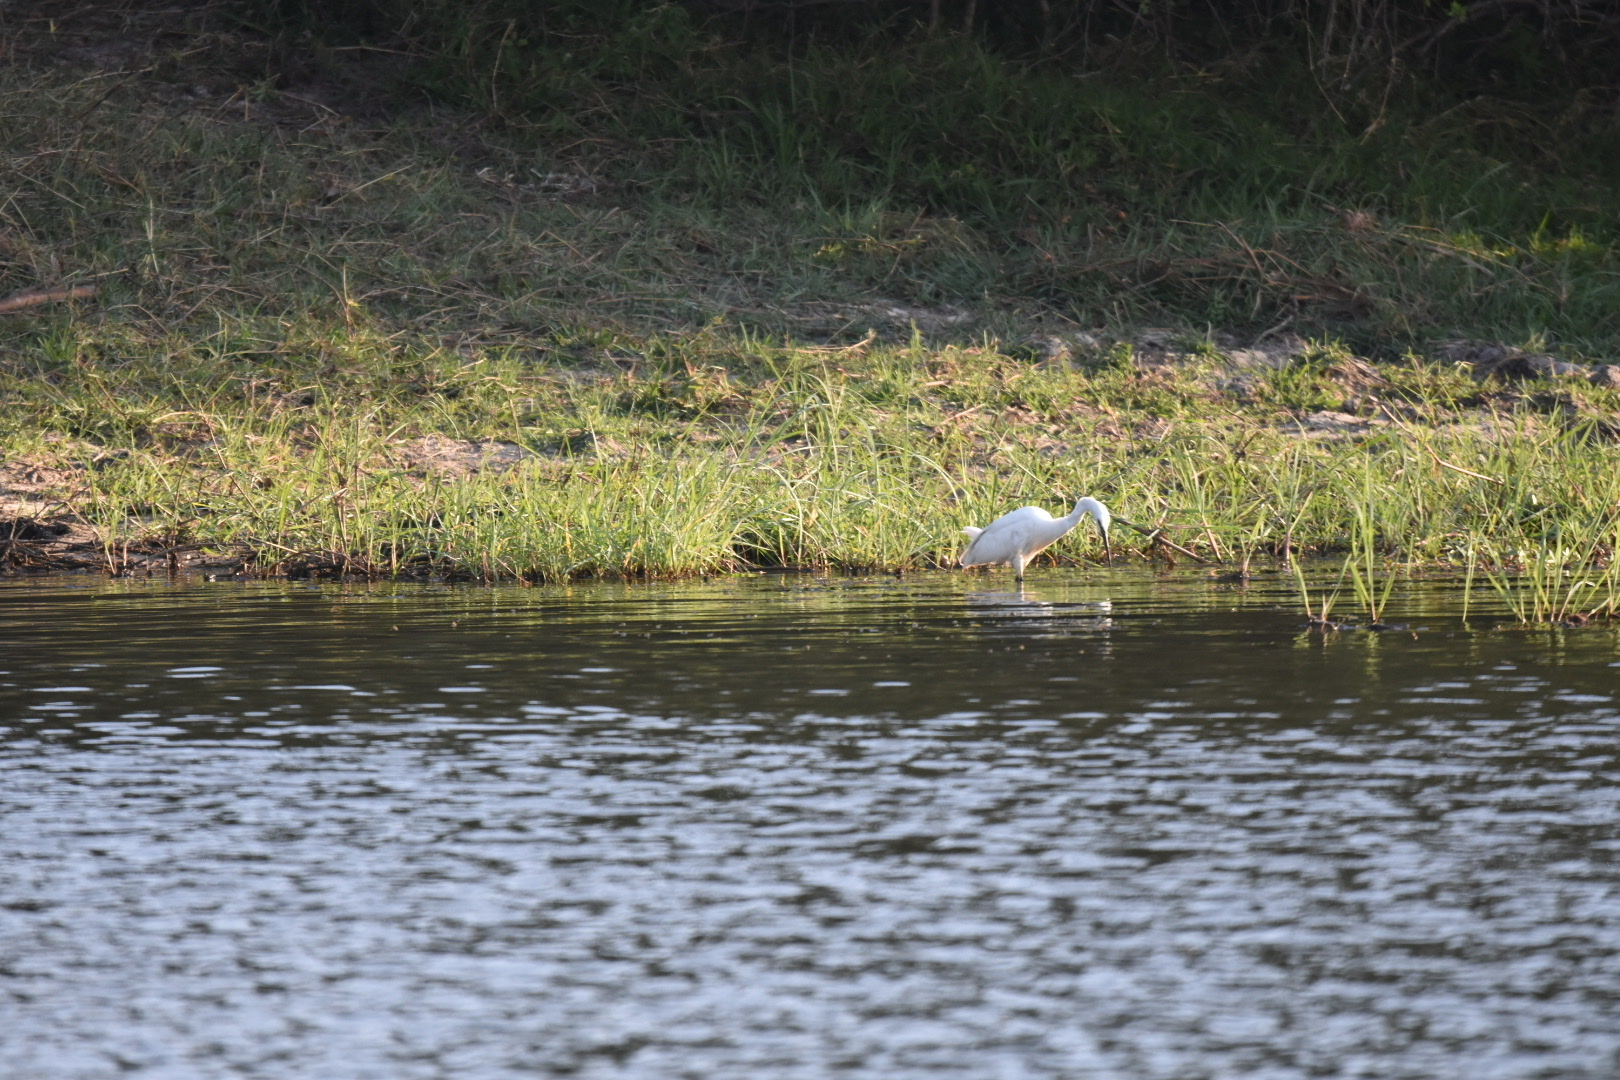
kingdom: Animalia
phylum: Chordata
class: Aves
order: Pelecaniformes
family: Ardeidae
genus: Egretta
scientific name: Egretta garzetta
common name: Little egret
